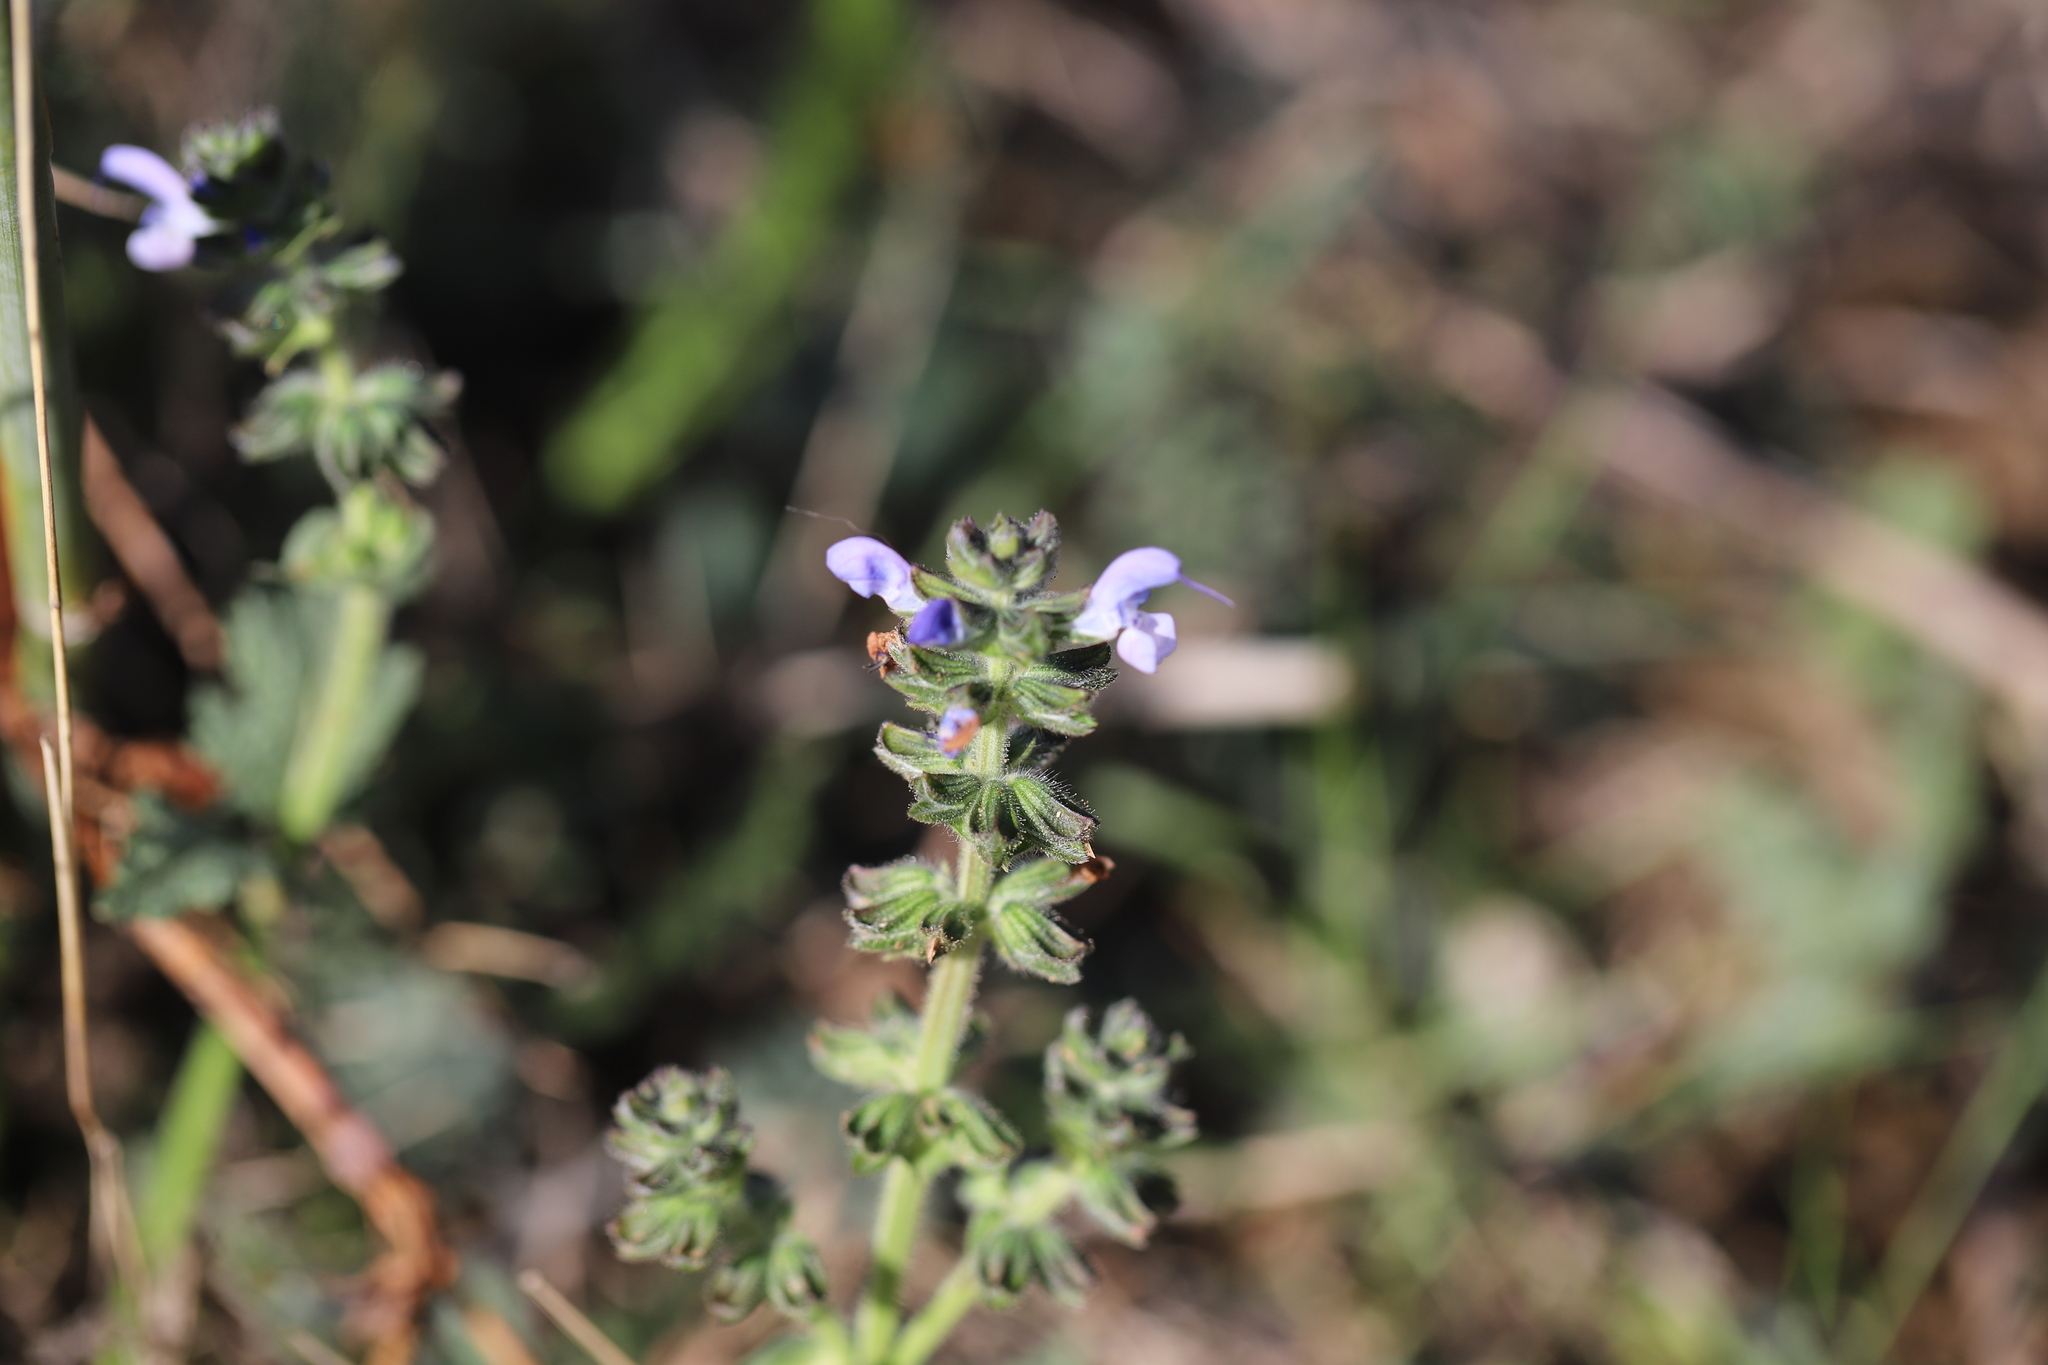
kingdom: Plantae
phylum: Tracheophyta
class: Magnoliopsida
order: Lamiales
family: Lamiaceae
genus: Salvia
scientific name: Salvia verbenaca
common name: Wild clary
